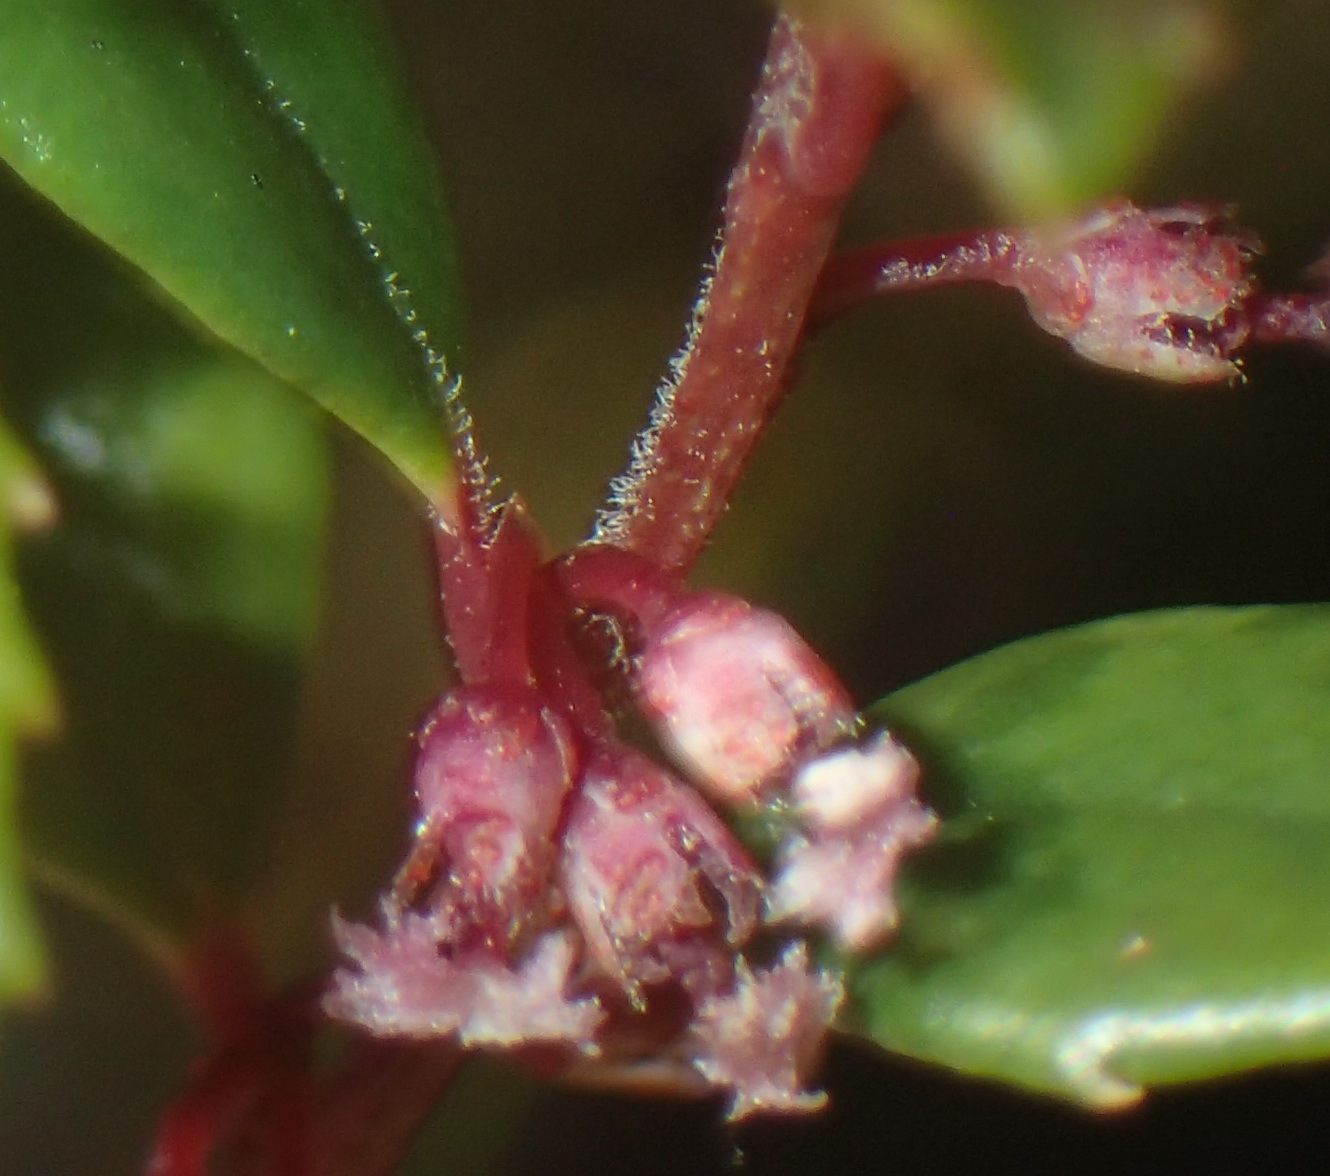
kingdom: Plantae
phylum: Tracheophyta
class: Magnoliopsida
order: Ericales
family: Primulaceae
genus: Myrsine
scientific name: Myrsine africana
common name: African-boxwood
